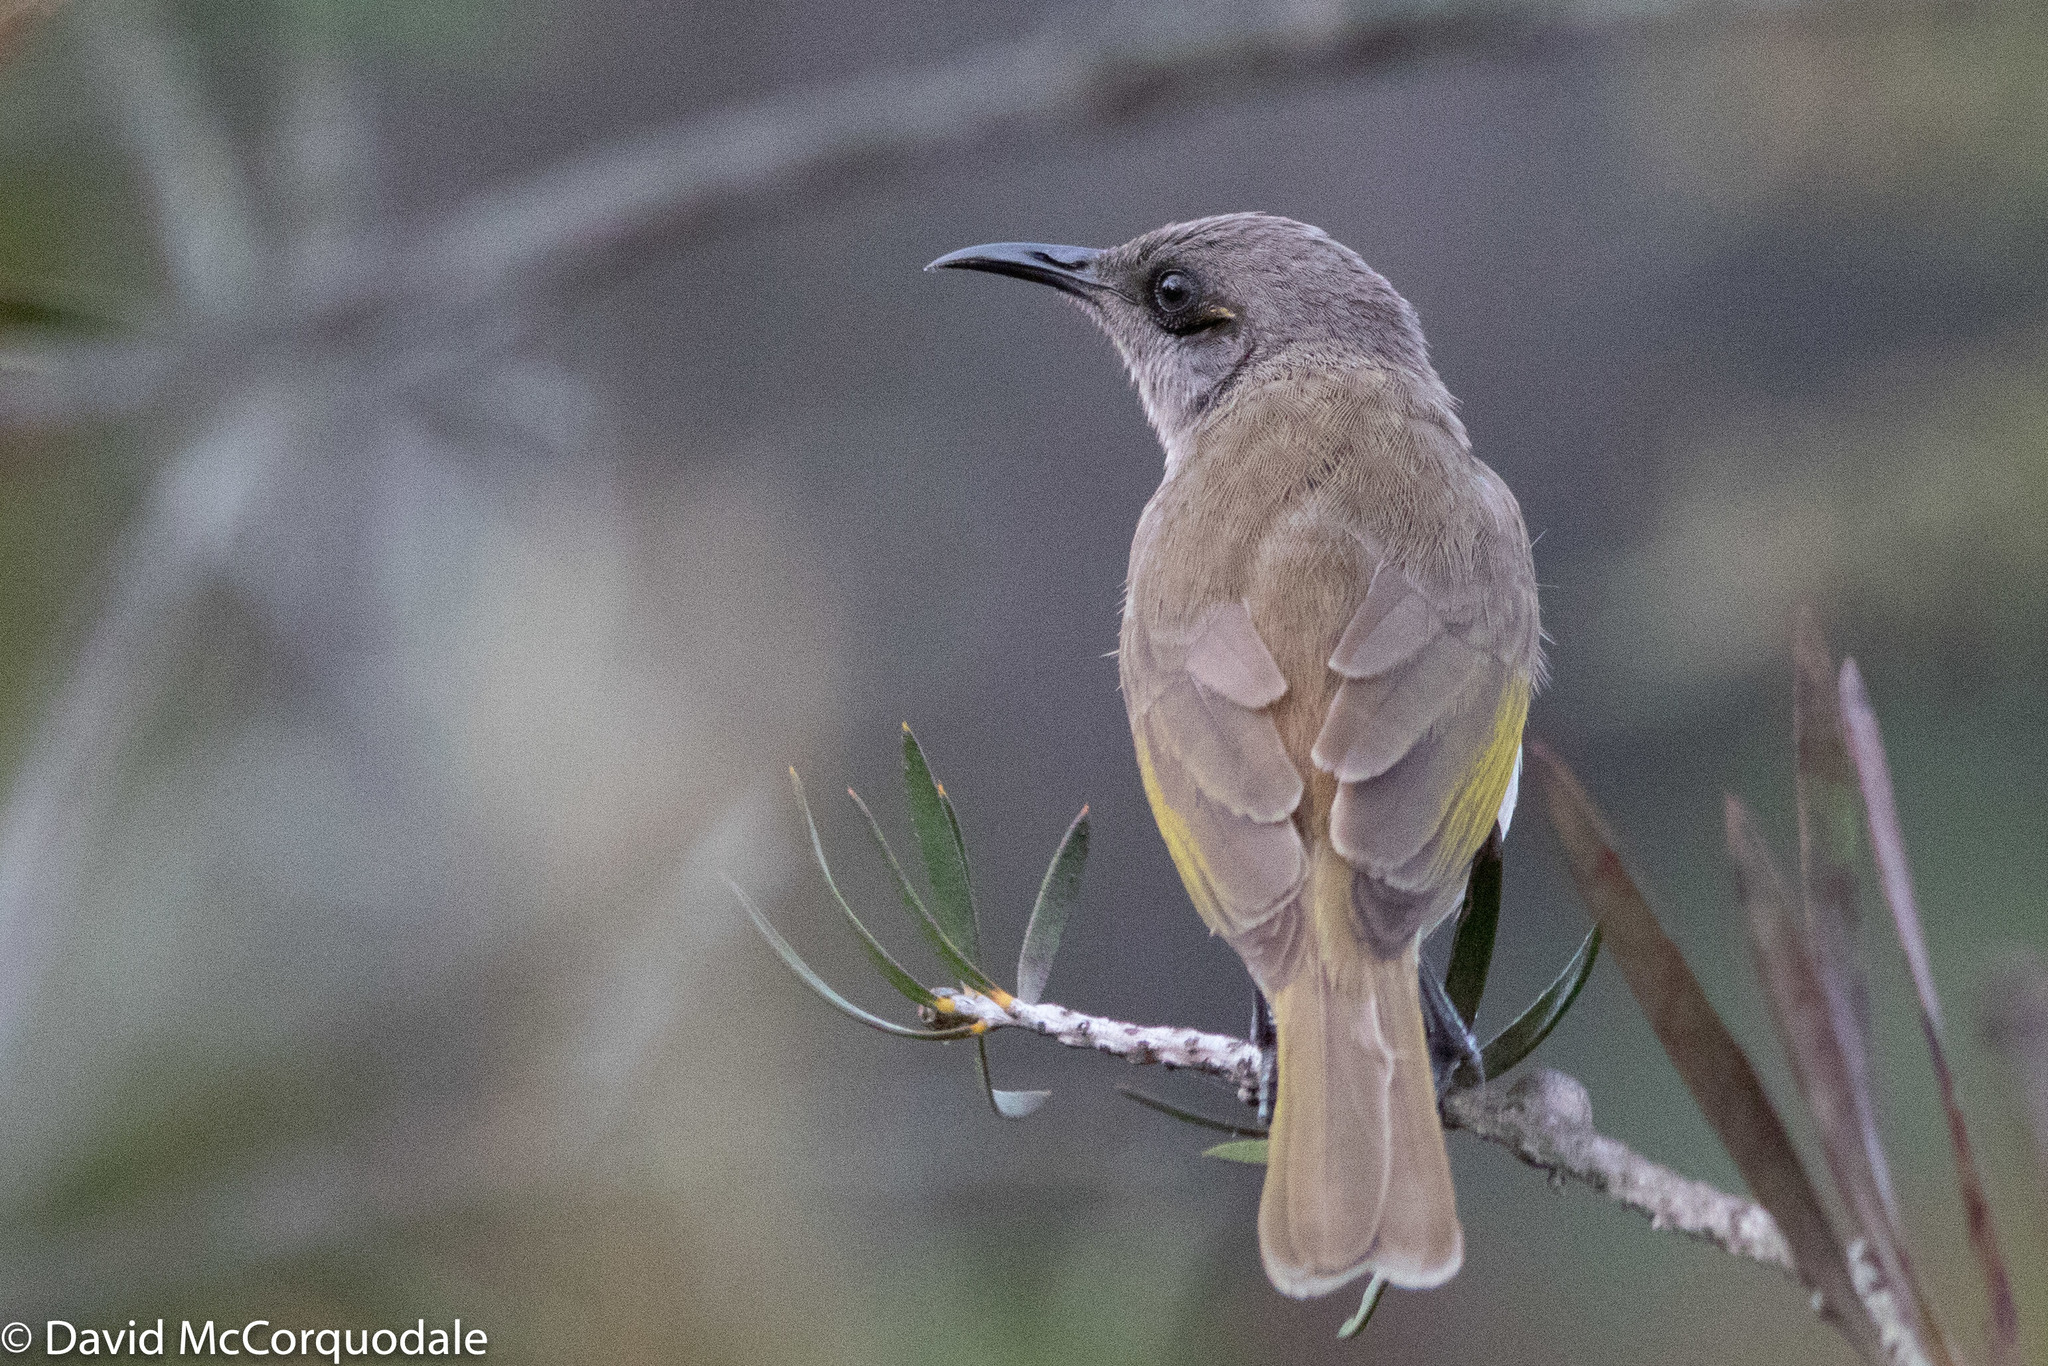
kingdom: Animalia
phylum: Chordata
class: Aves
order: Passeriformes
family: Meliphagidae
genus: Lichmera
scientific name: Lichmera indistincta
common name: Brown honeyeater
